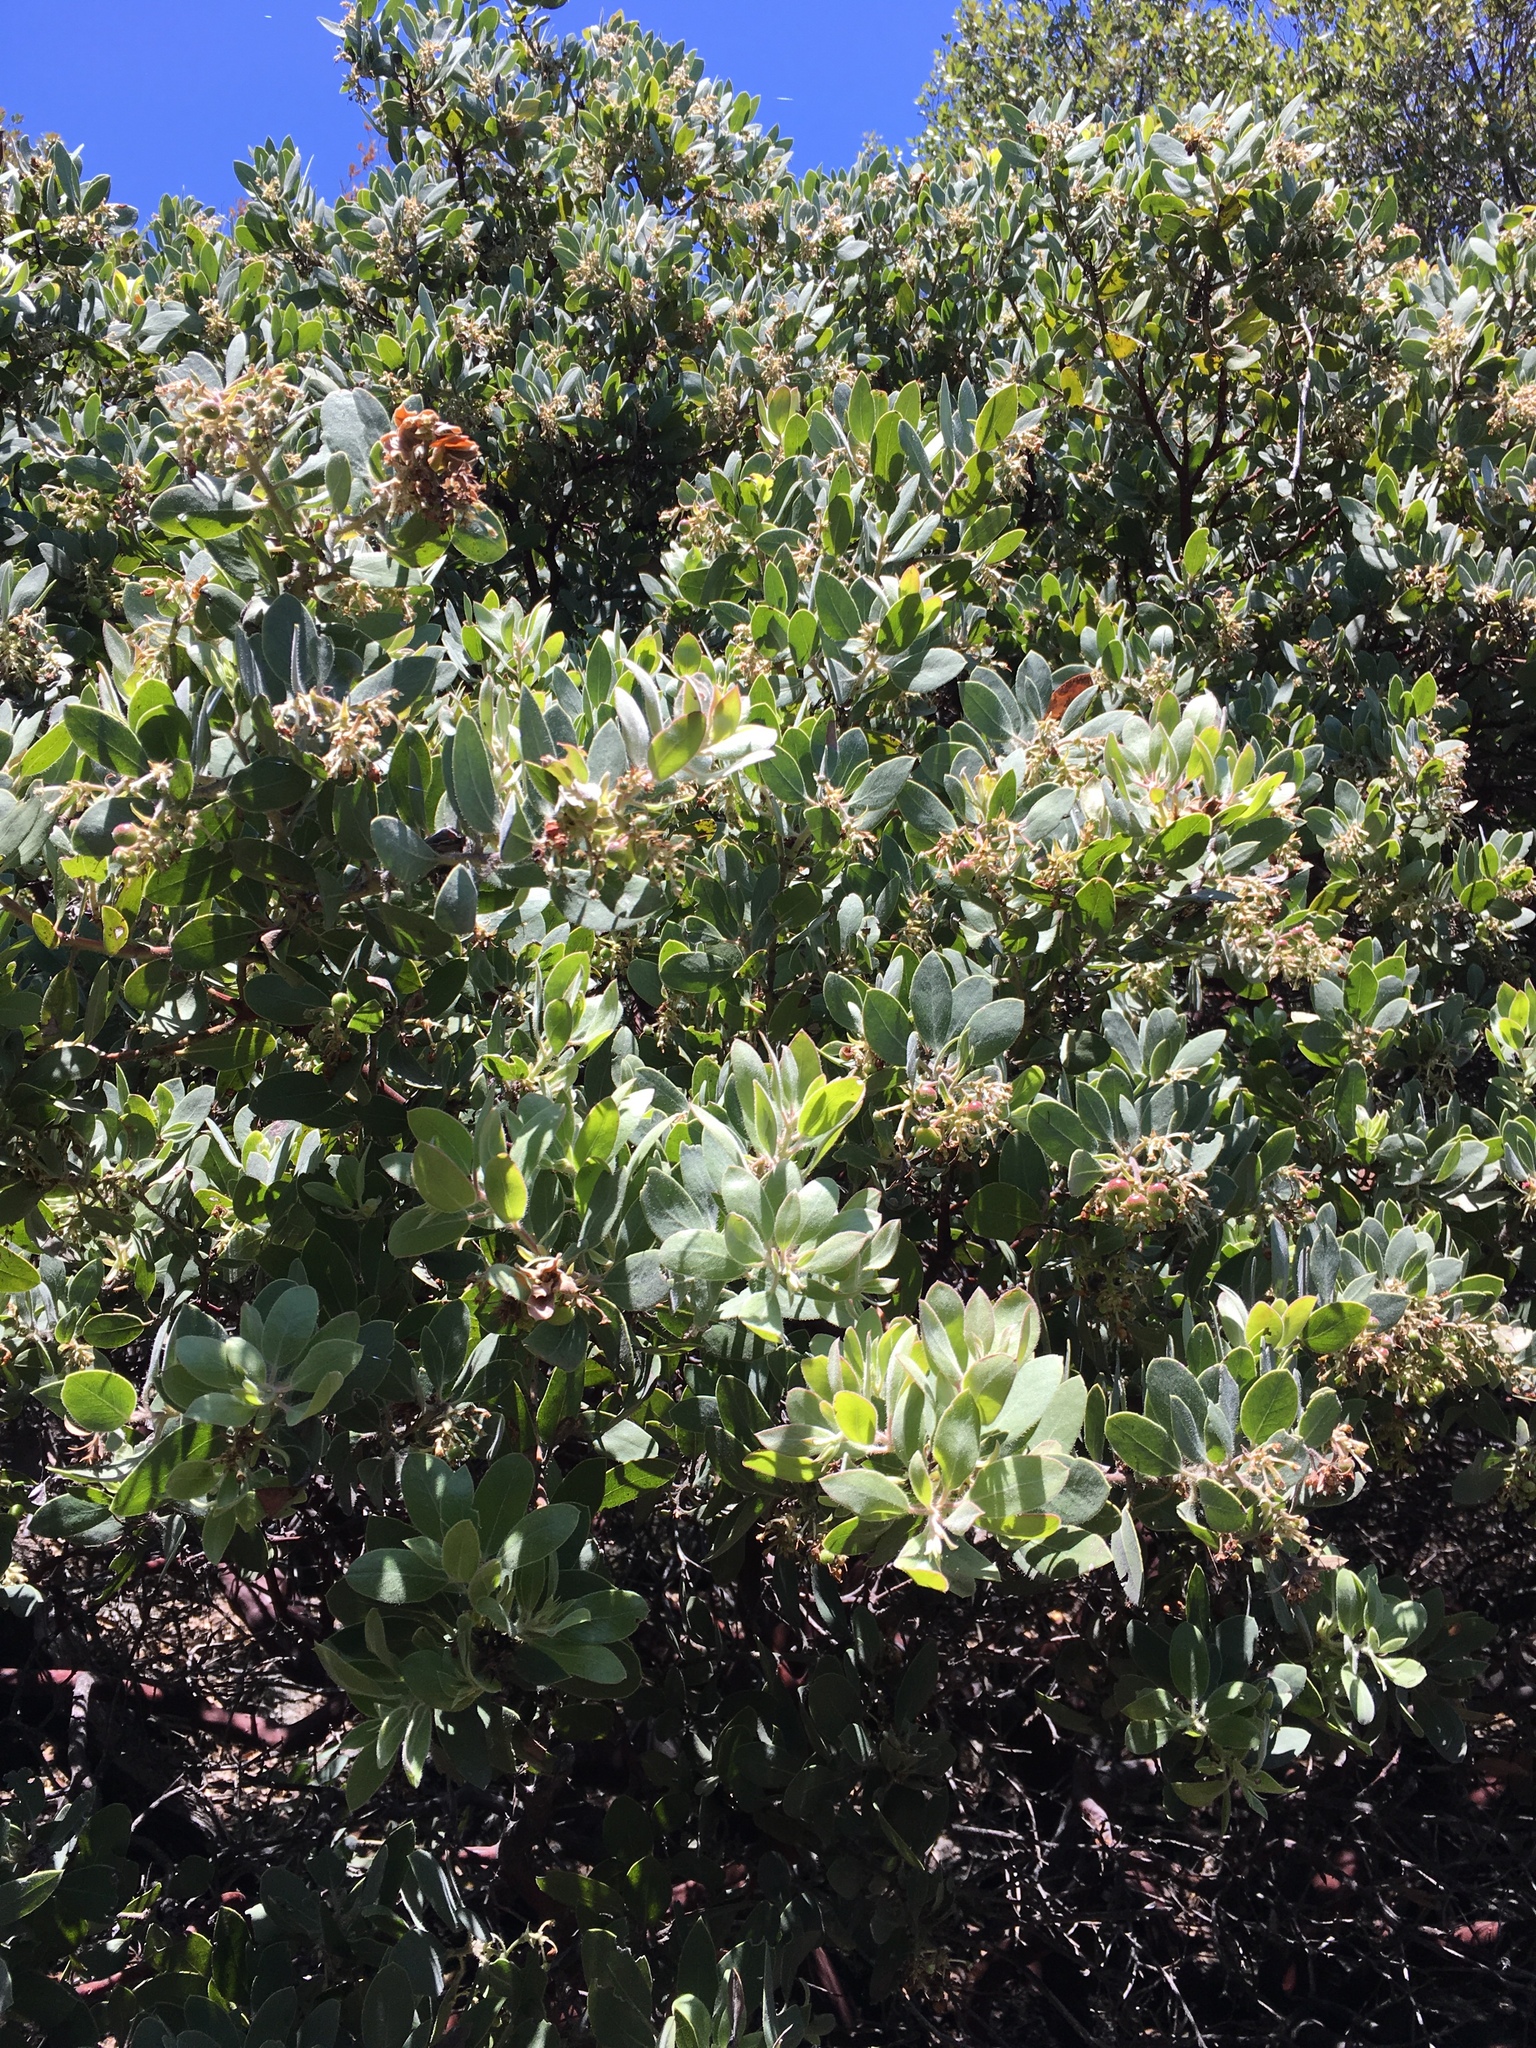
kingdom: Plantae
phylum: Tracheophyta
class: Magnoliopsida
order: Ericales
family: Ericaceae
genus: Arctostaphylos
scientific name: Arctostaphylos glandulosa
